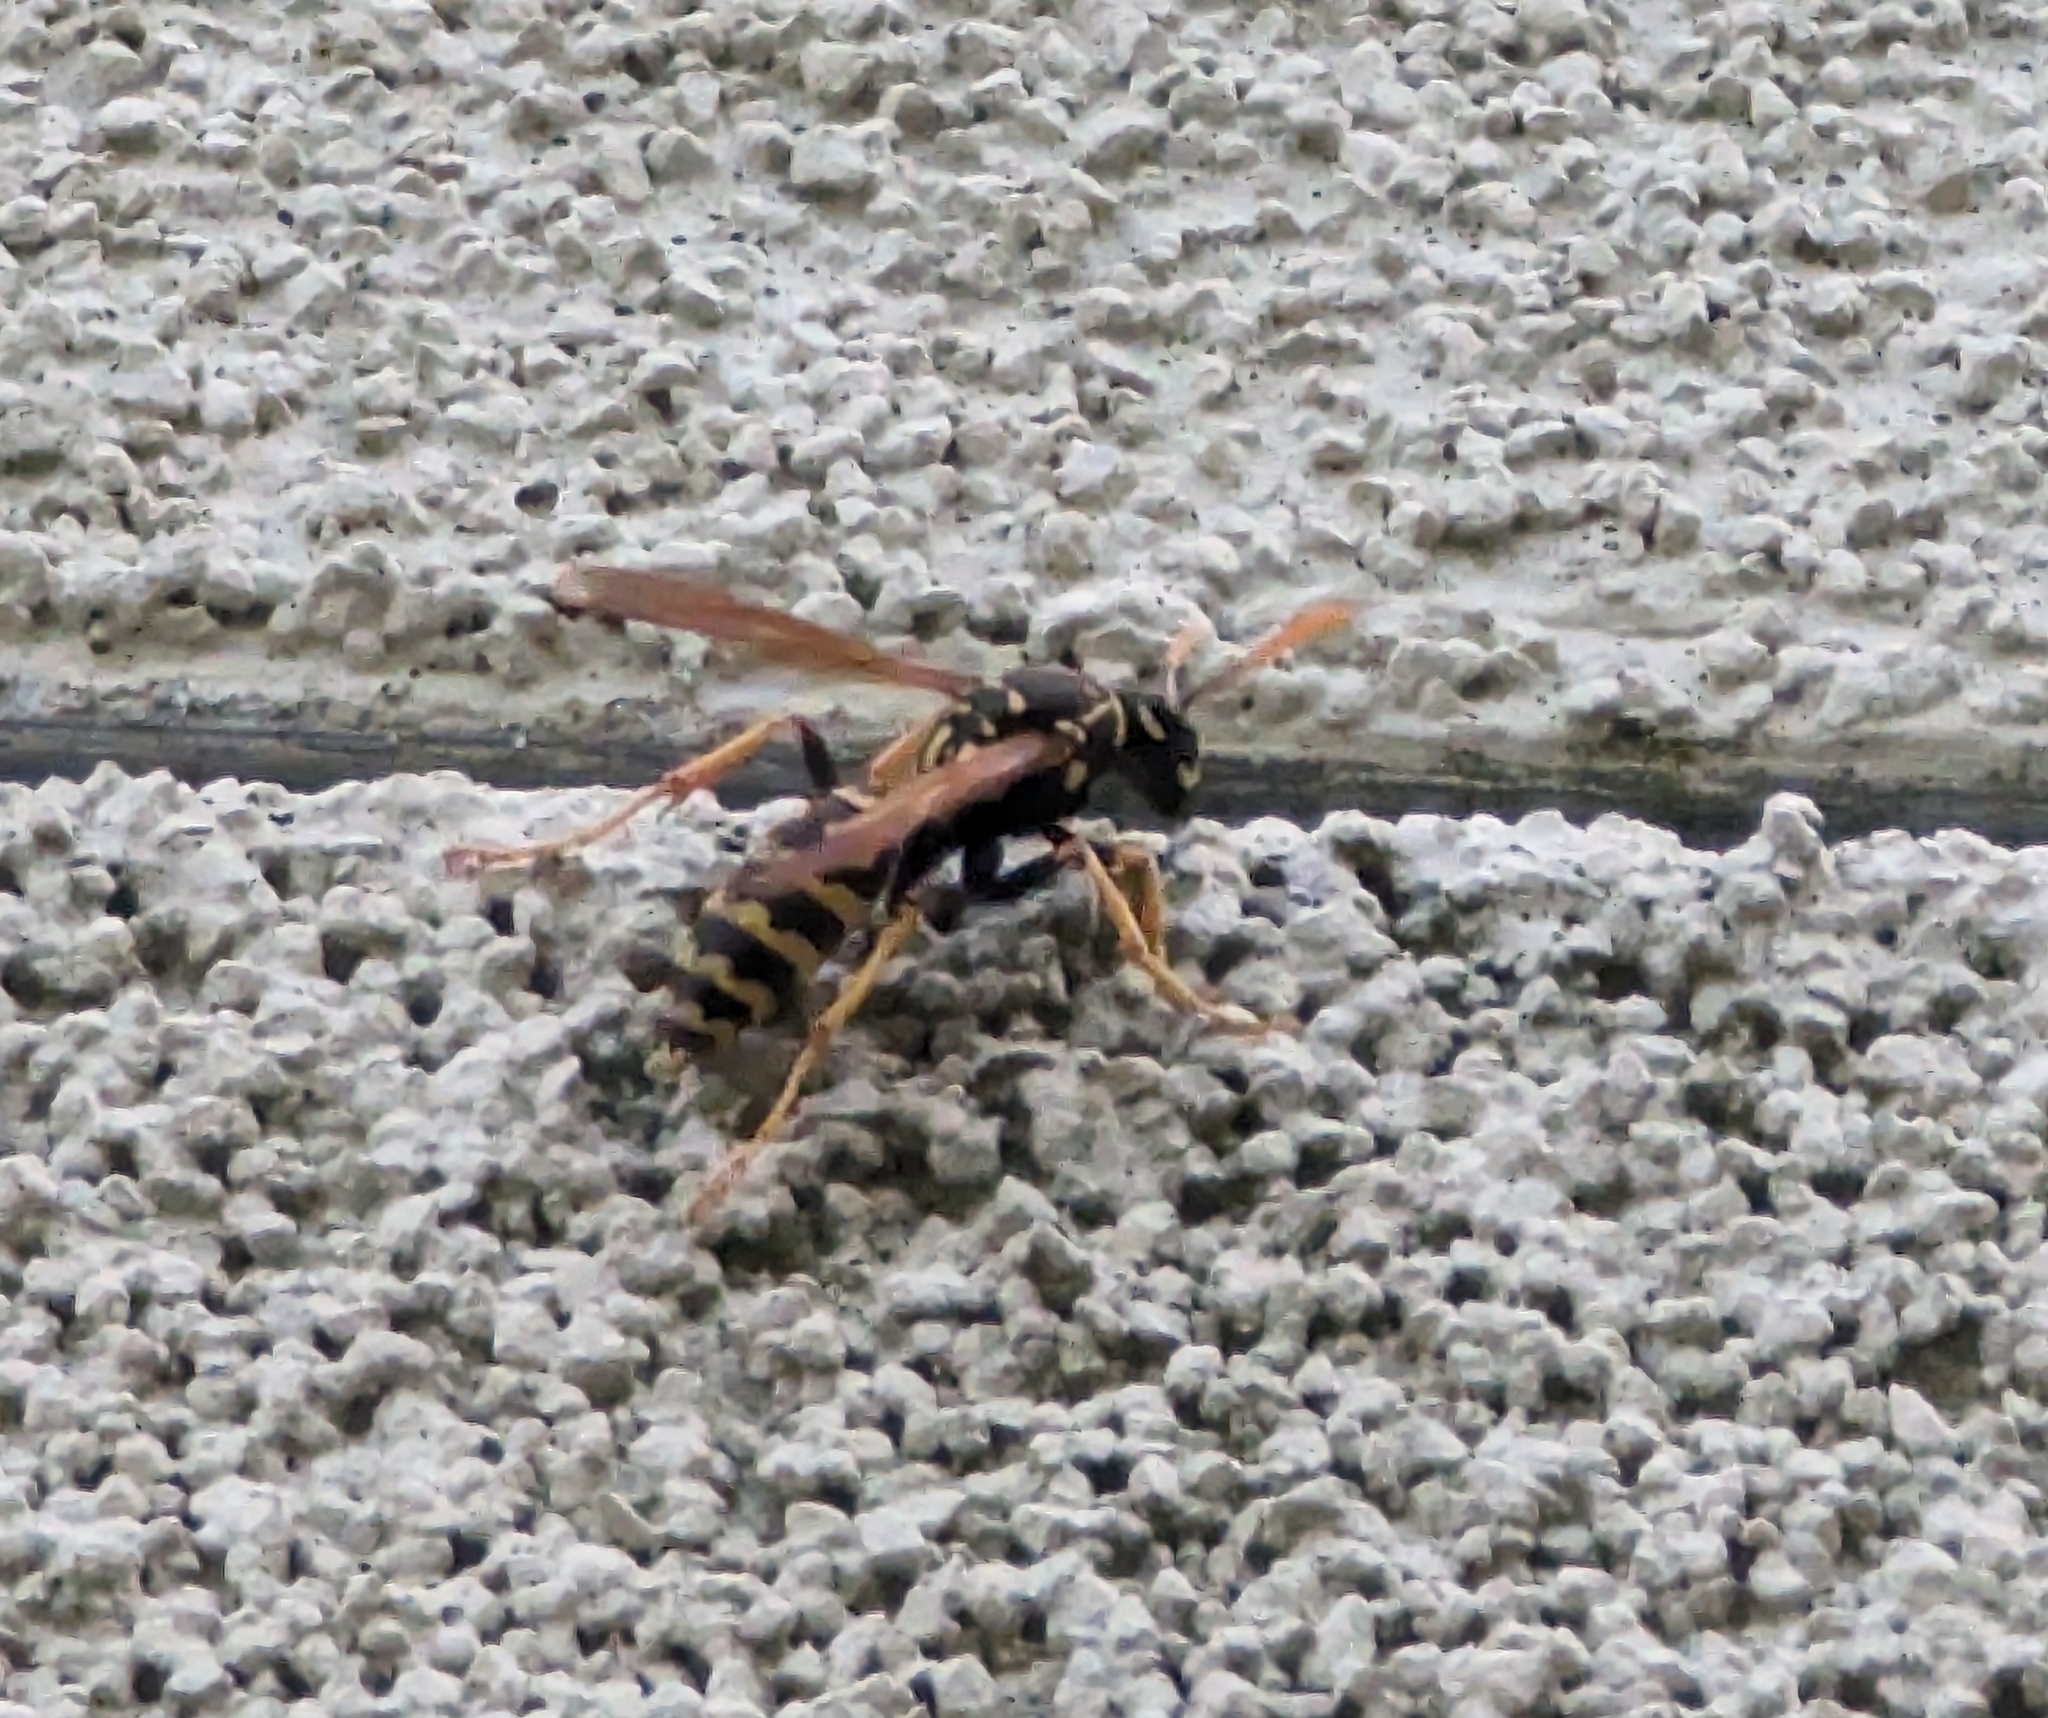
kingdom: Animalia
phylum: Arthropoda
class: Insecta
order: Hymenoptera
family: Eumenidae
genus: Polistes
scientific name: Polistes dominula
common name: Paper wasp
